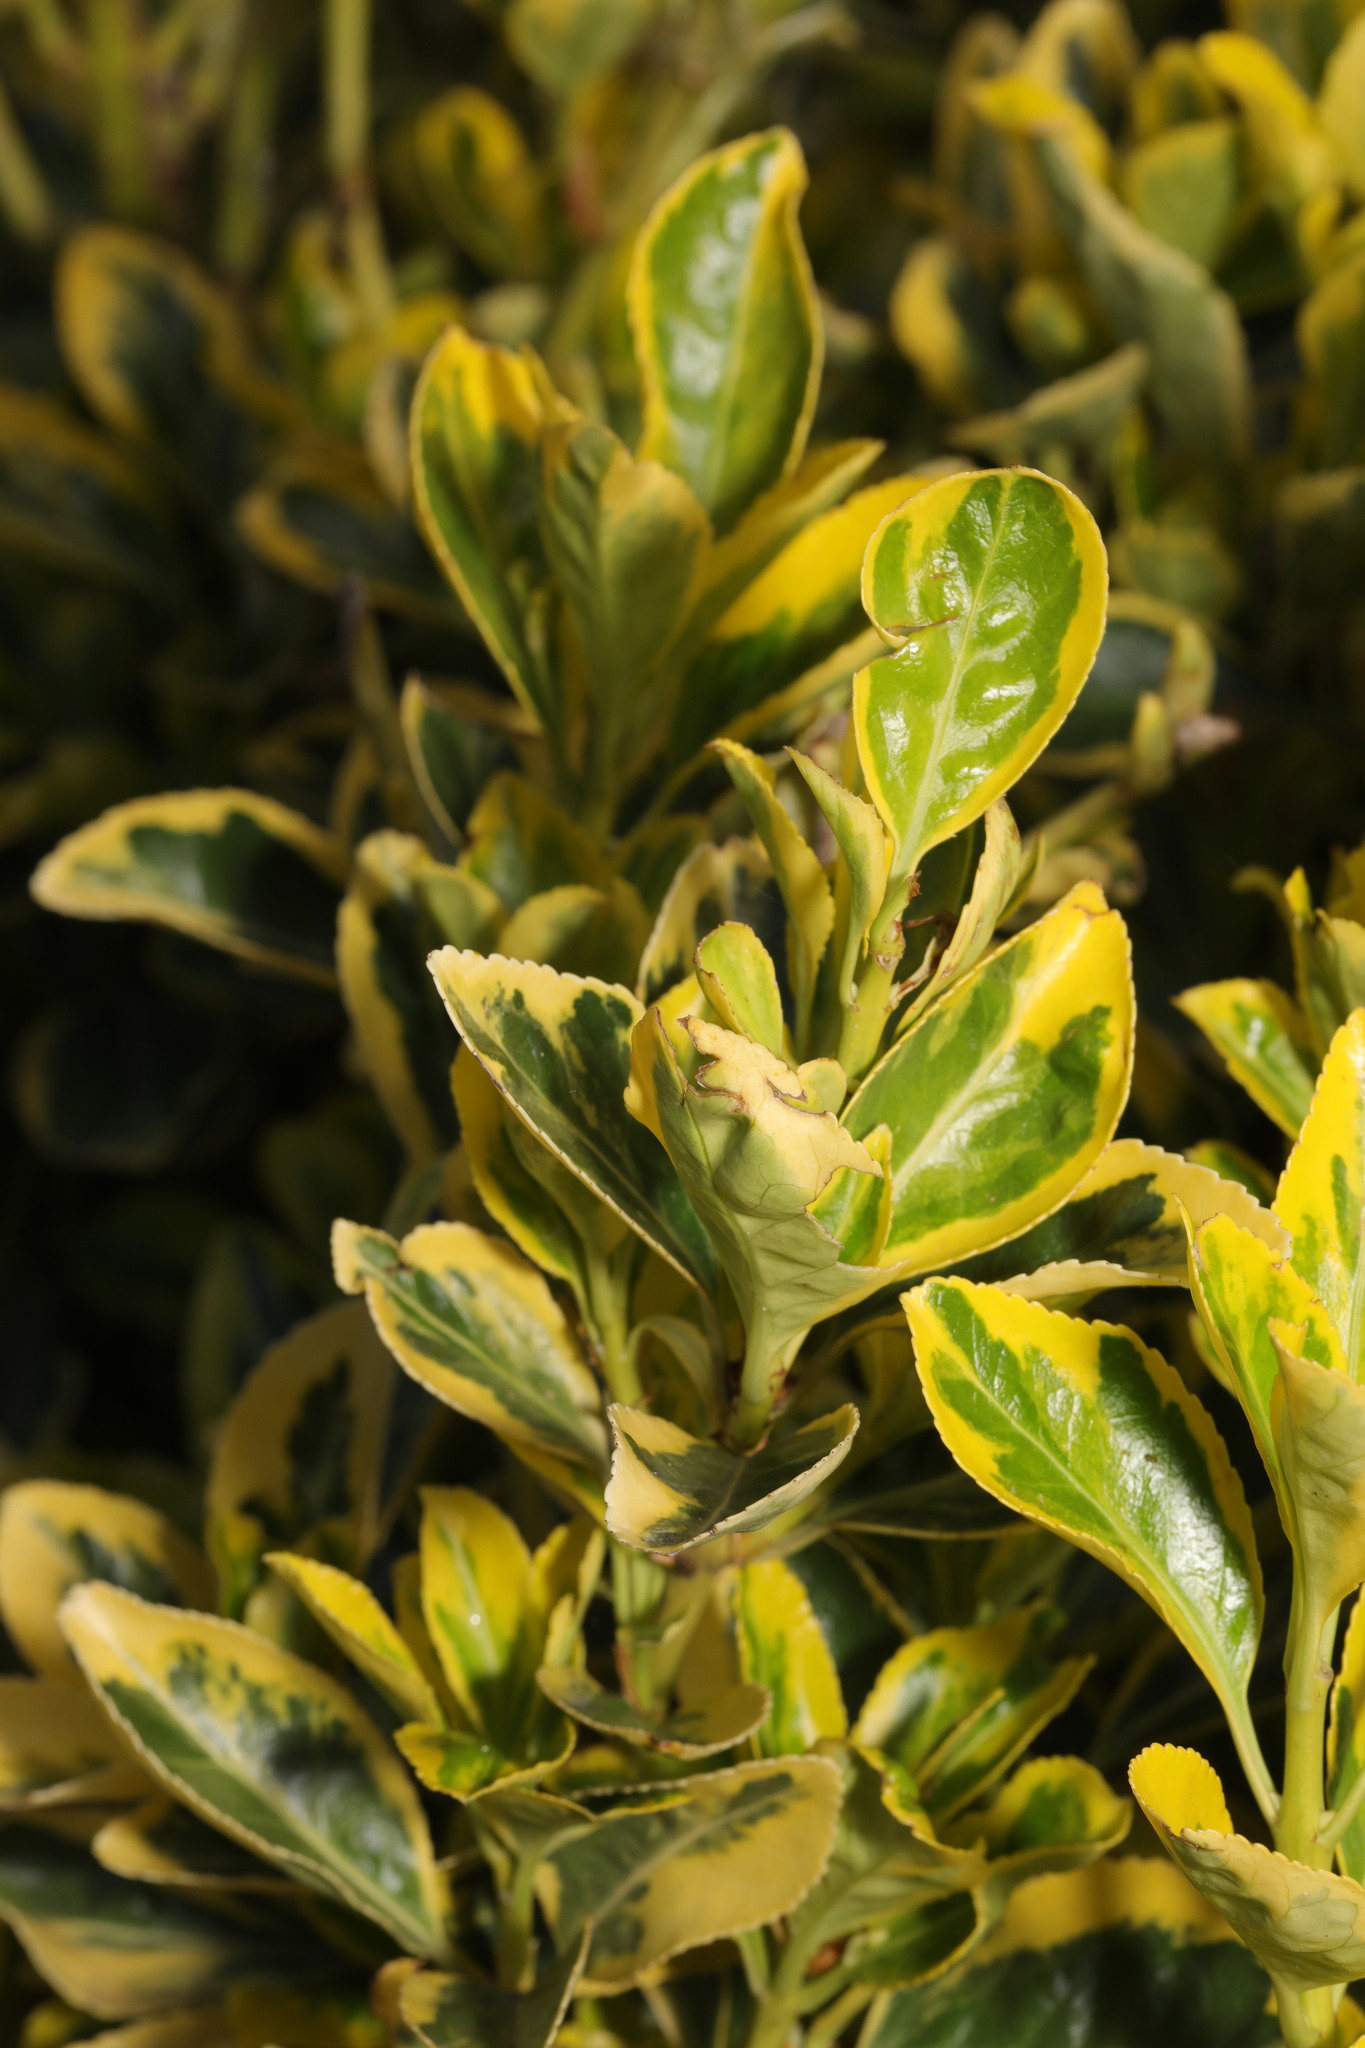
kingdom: Plantae
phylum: Tracheophyta
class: Magnoliopsida
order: Celastrales
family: Celastraceae
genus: Euonymus
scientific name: Euonymus japonicus
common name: Japanese spindletree
